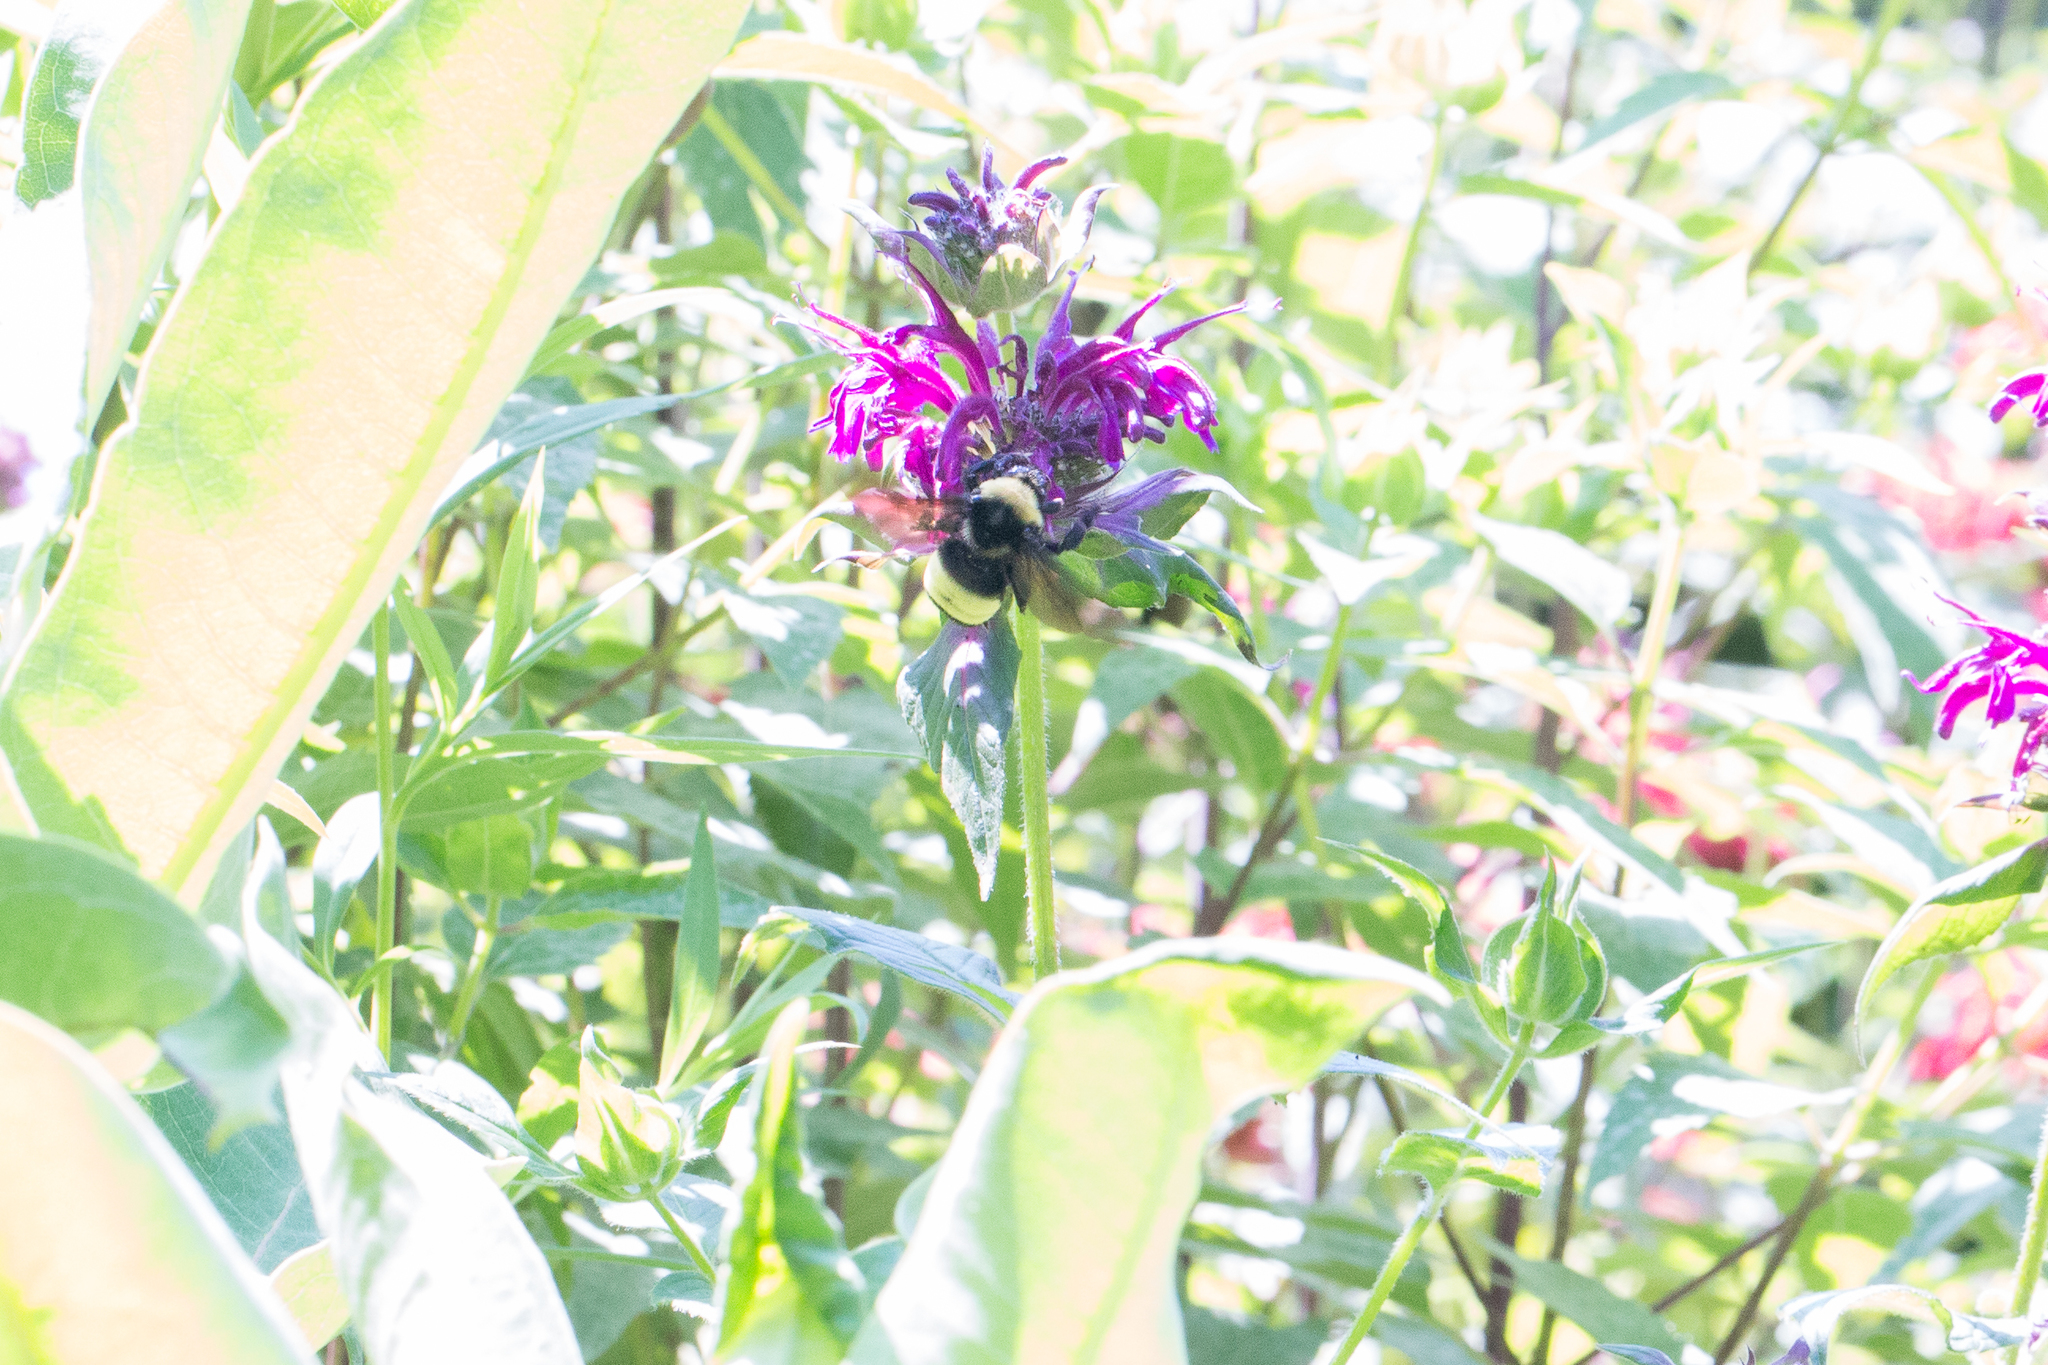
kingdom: Animalia
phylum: Arthropoda
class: Insecta
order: Hymenoptera
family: Apidae
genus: Bombus
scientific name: Bombus auricomus
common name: Black and gold bumble bee
